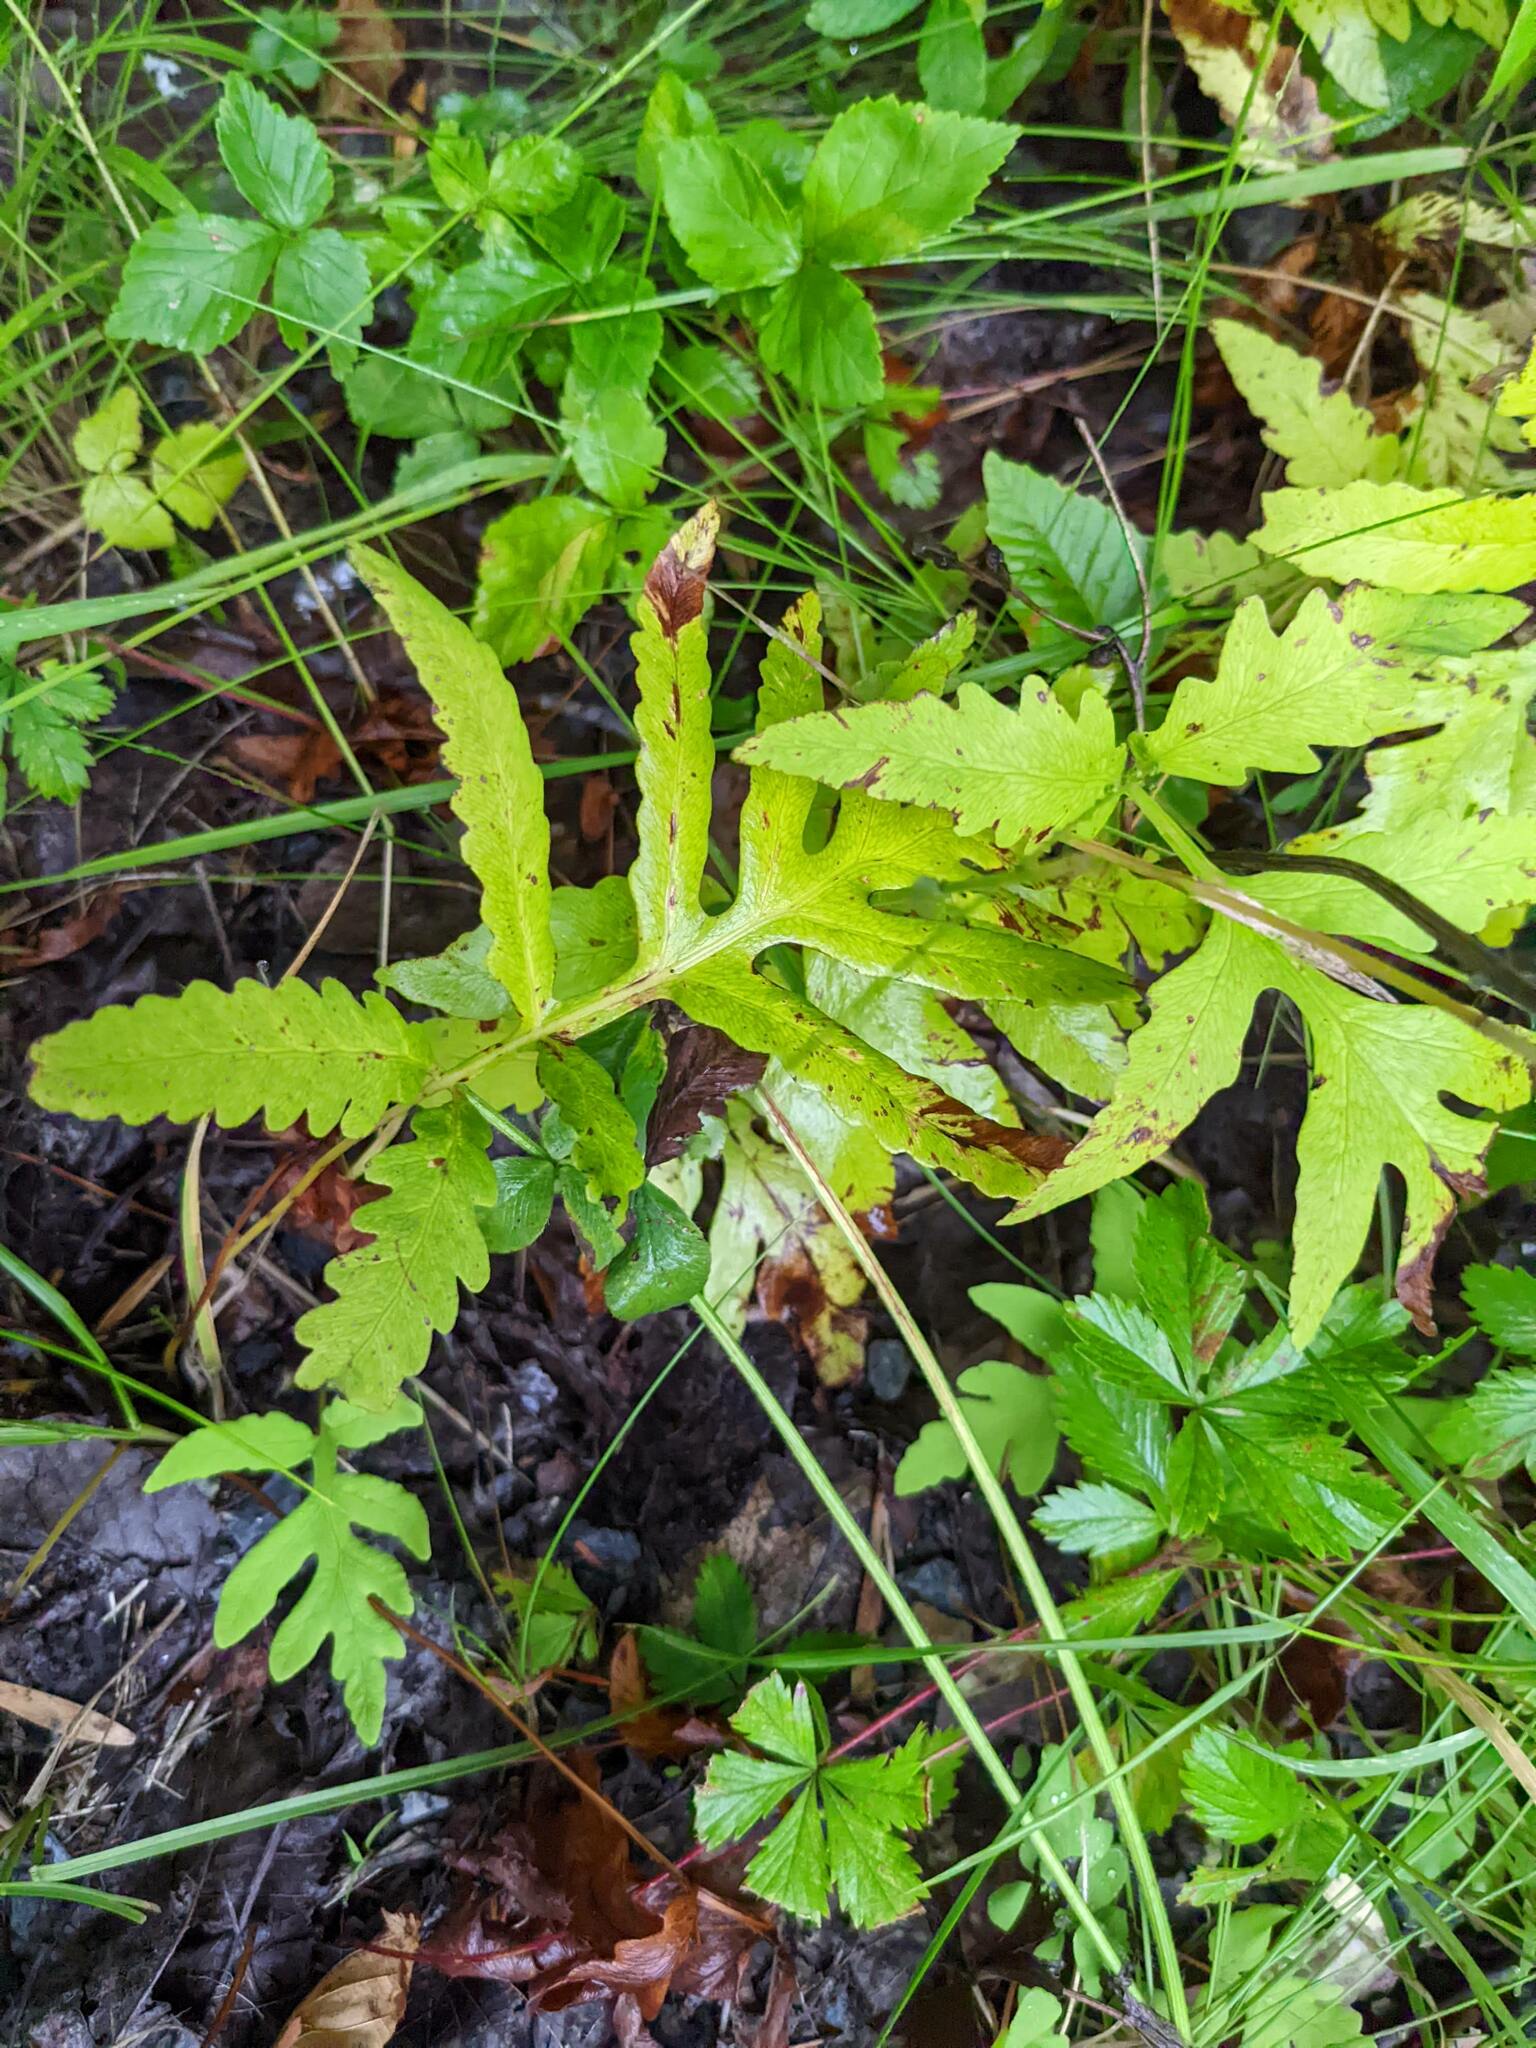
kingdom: Plantae
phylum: Tracheophyta
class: Polypodiopsida
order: Polypodiales
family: Onocleaceae
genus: Onoclea
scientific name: Onoclea sensibilis
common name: Sensitive fern
